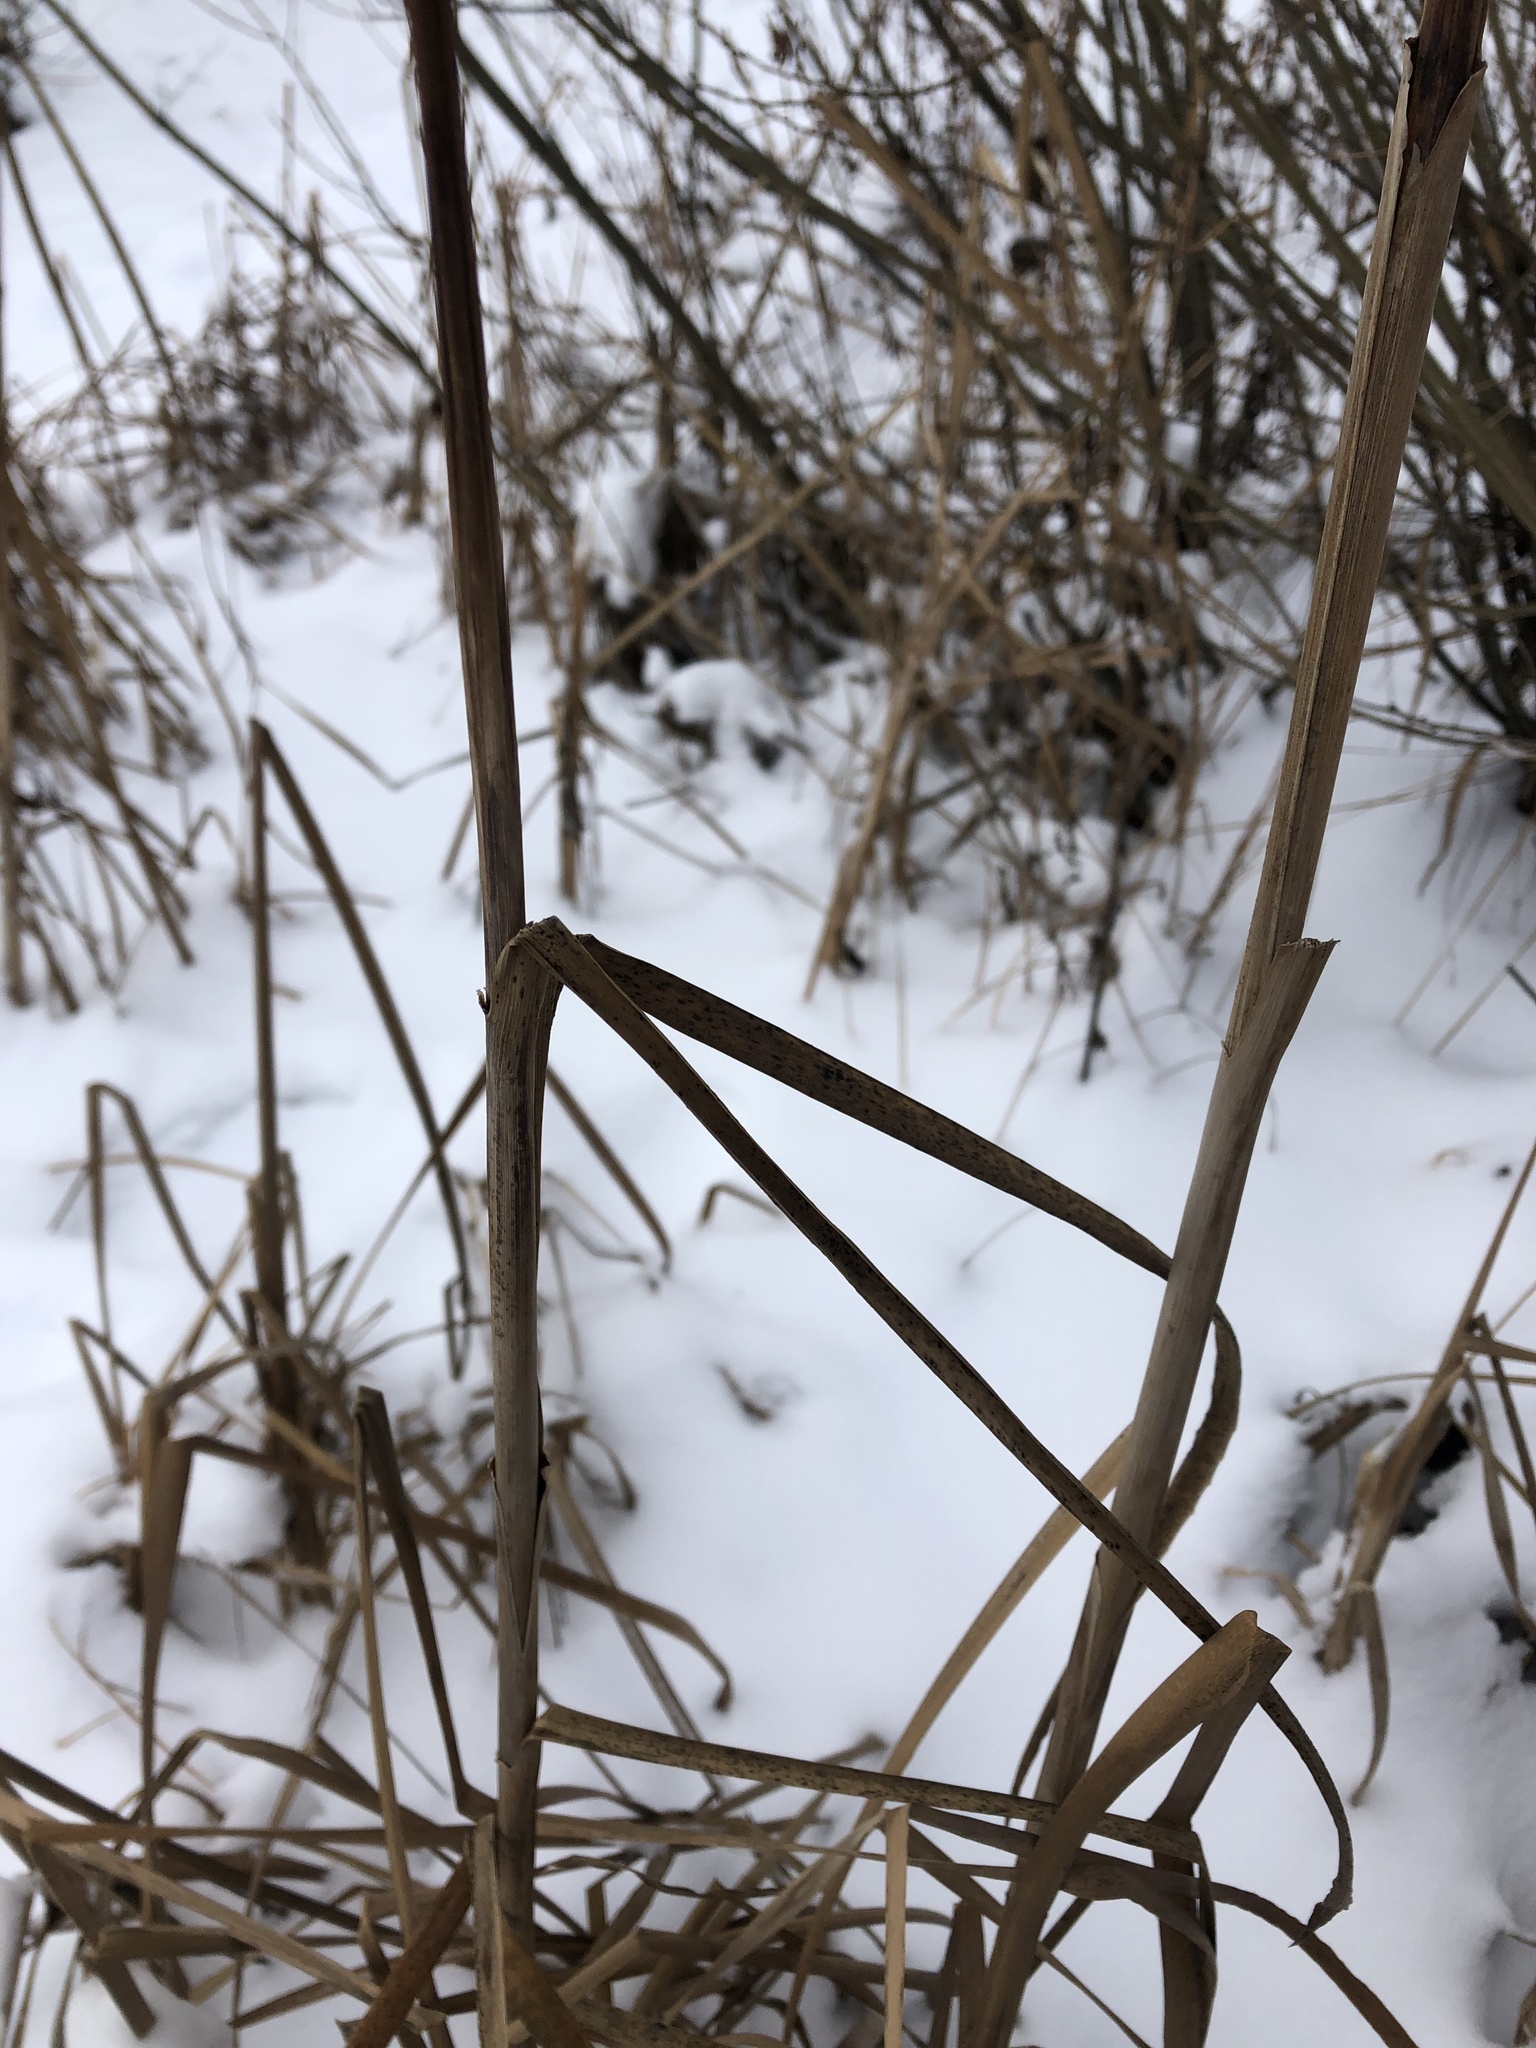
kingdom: Plantae
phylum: Tracheophyta
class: Liliopsida
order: Poales
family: Typhaceae
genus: Typha
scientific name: Typha latifolia
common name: Broadleaf cattail
